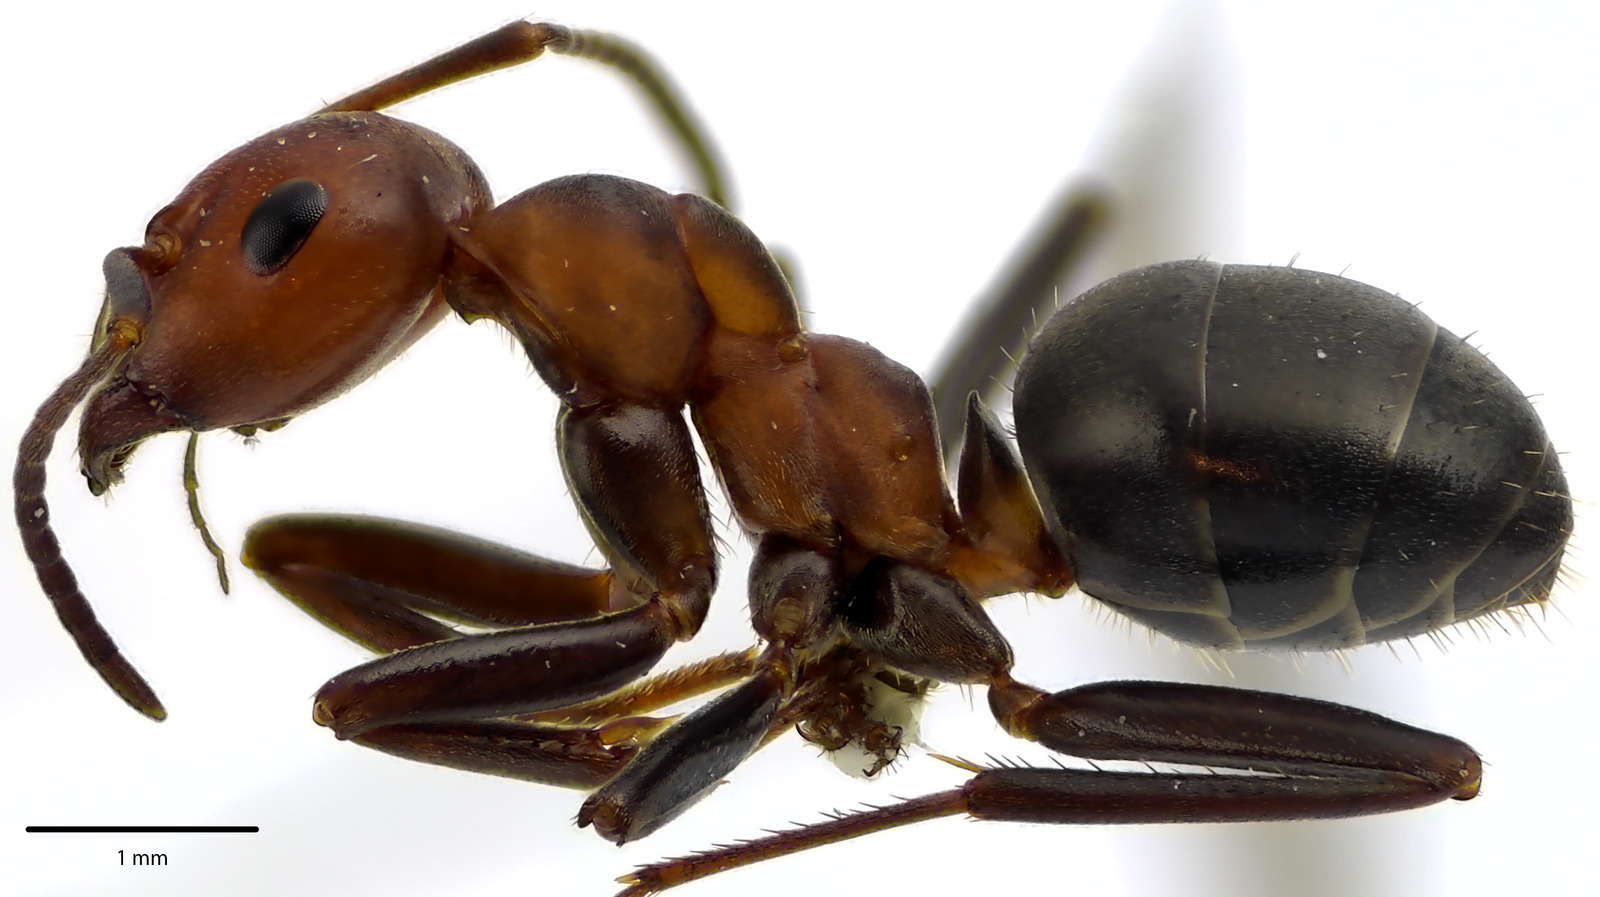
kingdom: Animalia
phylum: Arthropoda
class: Insecta
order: Hymenoptera
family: Formicidae
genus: Formica
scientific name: Formica integra
